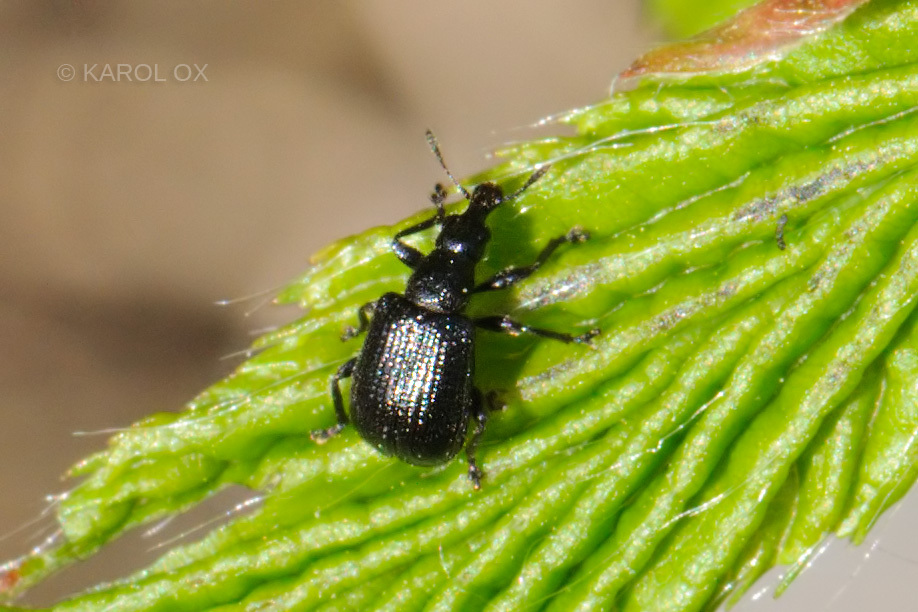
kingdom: Animalia
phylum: Arthropoda
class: Insecta
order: Coleoptera
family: Attelabidae
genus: Deporaus
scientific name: Deporaus betulae
